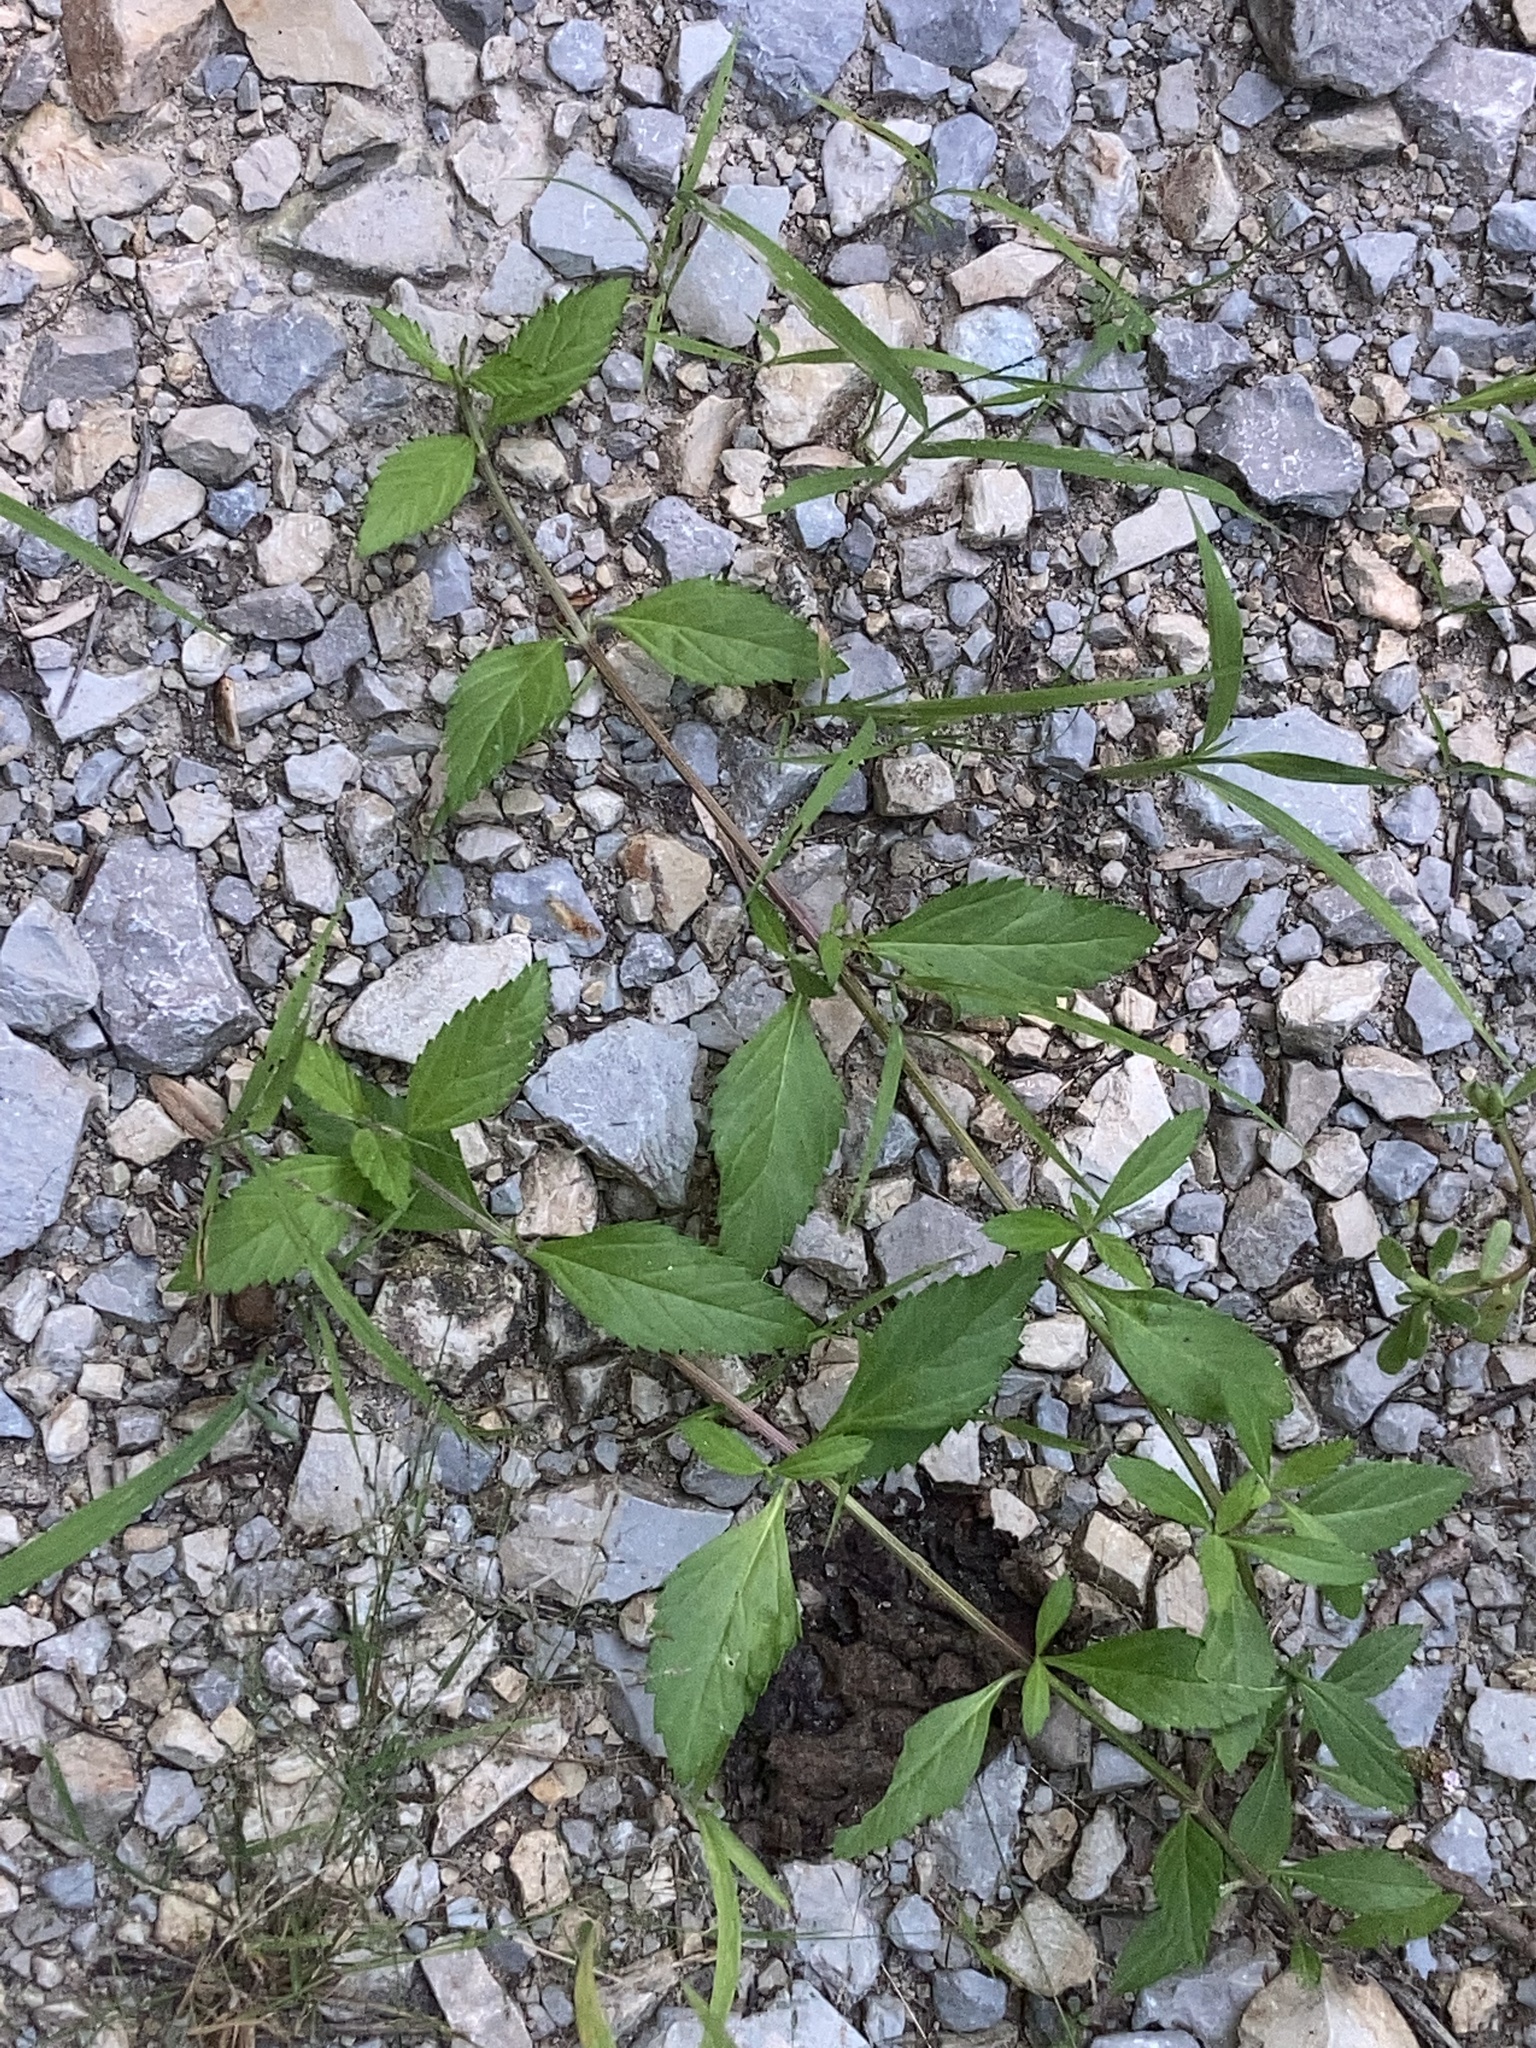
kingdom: Plantae
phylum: Tracheophyta
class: Magnoliopsida
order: Lamiales
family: Verbenaceae
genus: Phyla
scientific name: Phyla lanceolata
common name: Northern fogfruit
